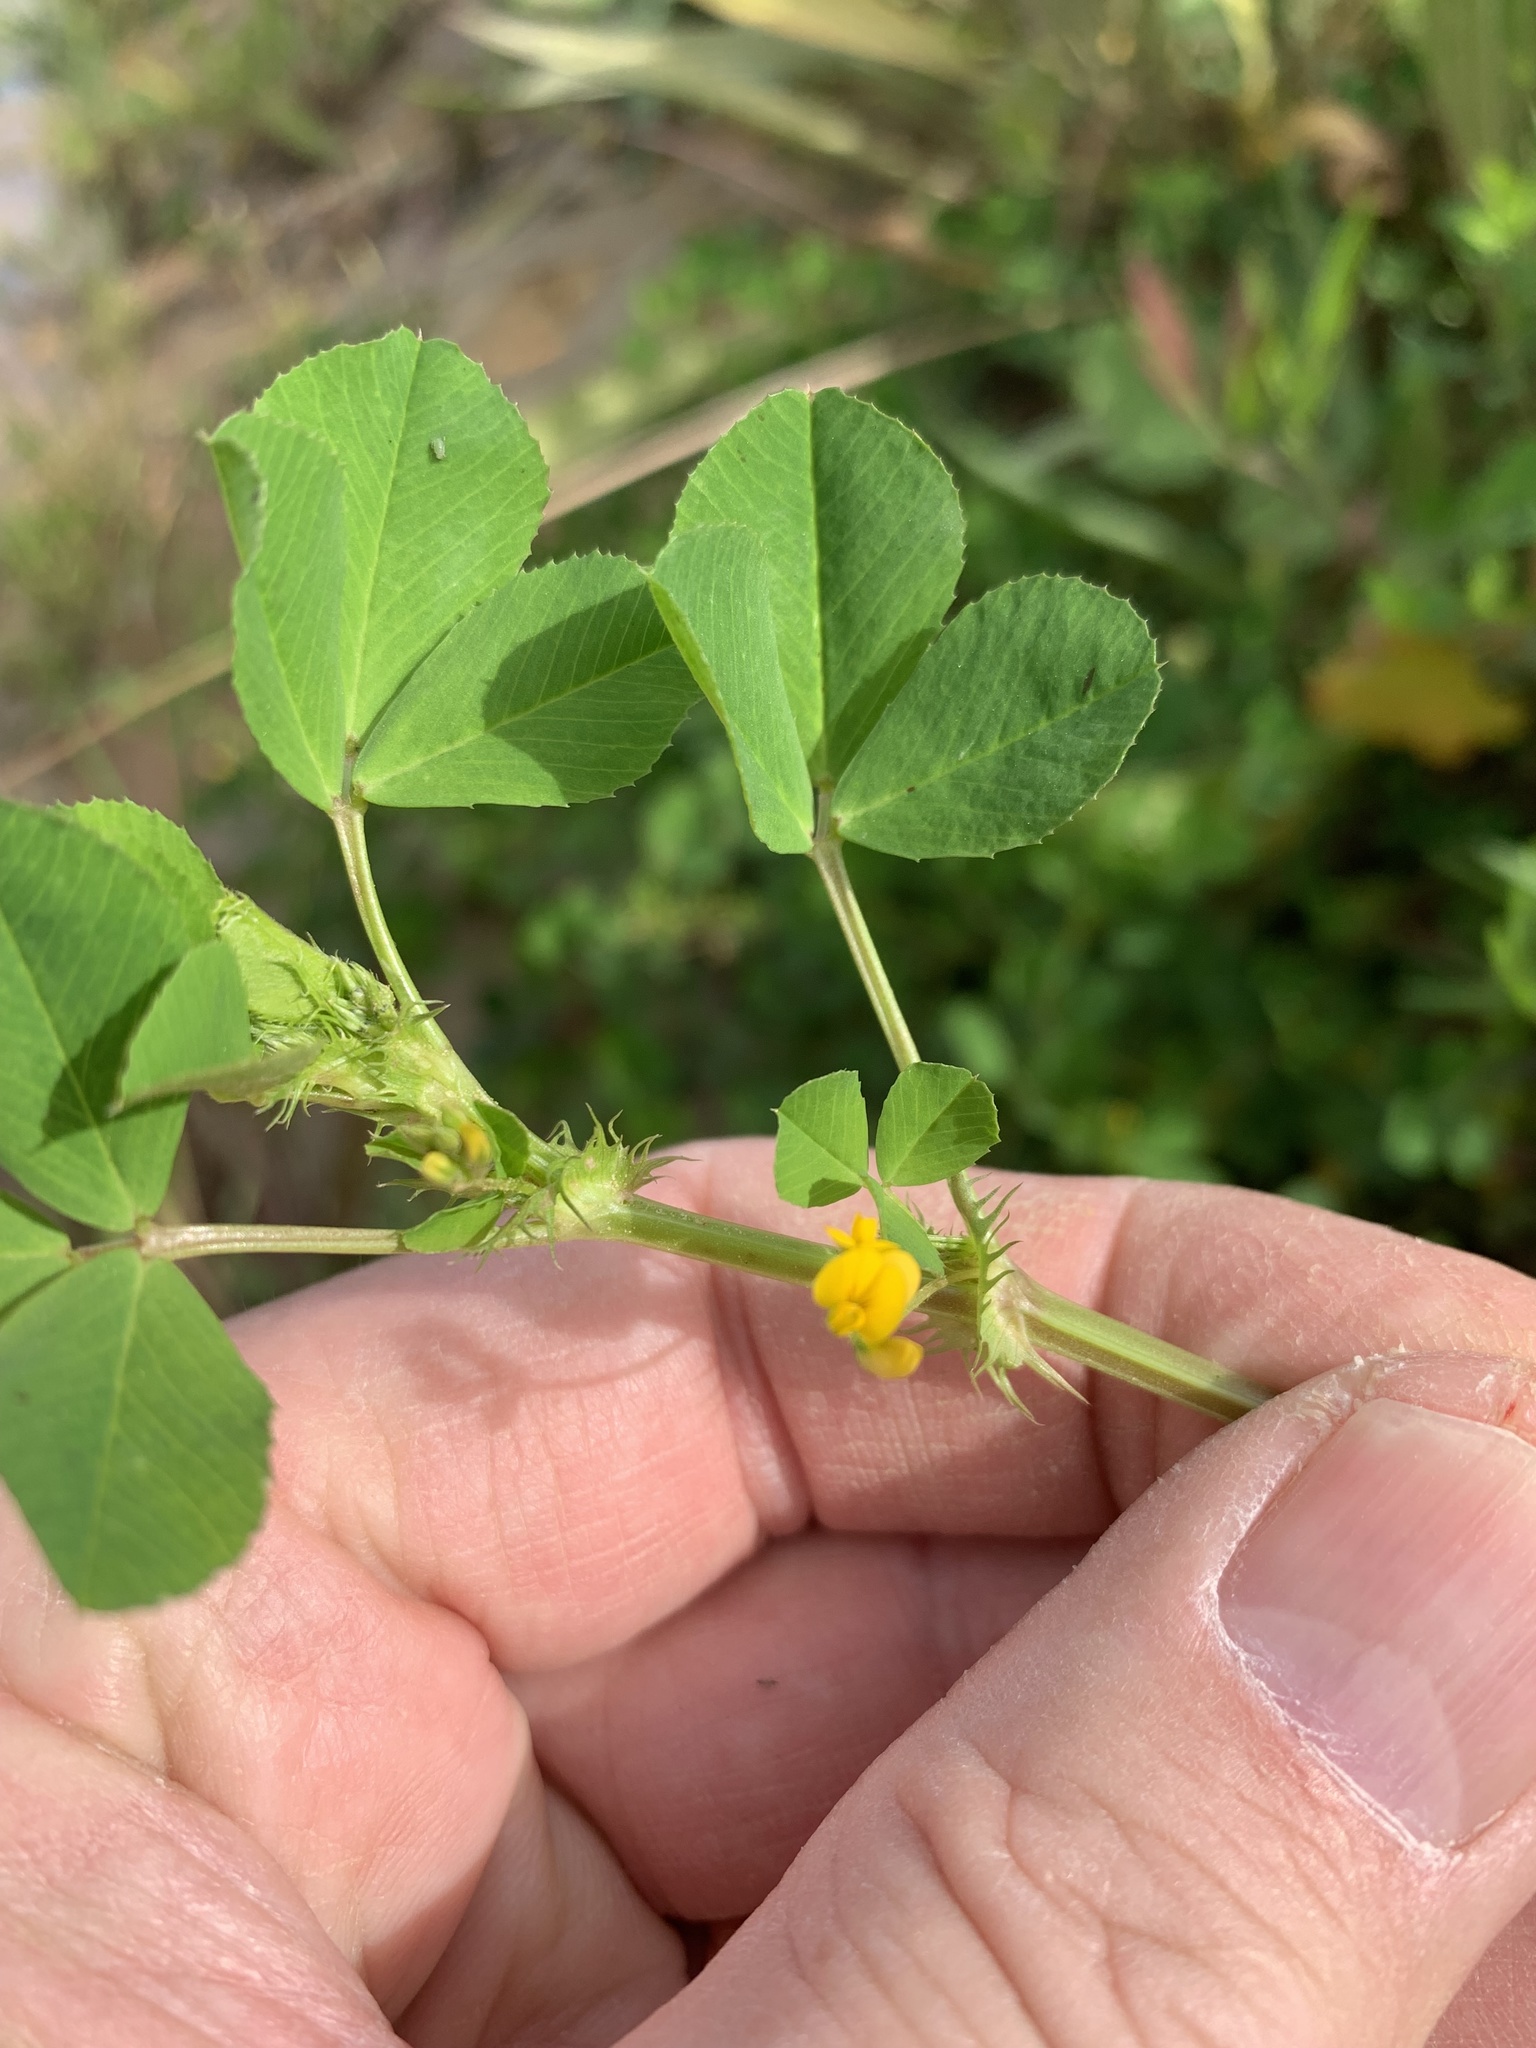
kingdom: Plantae
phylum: Tracheophyta
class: Magnoliopsida
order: Fabales
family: Fabaceae
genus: Medicago
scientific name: Medicago polymorpha
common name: Burclover
